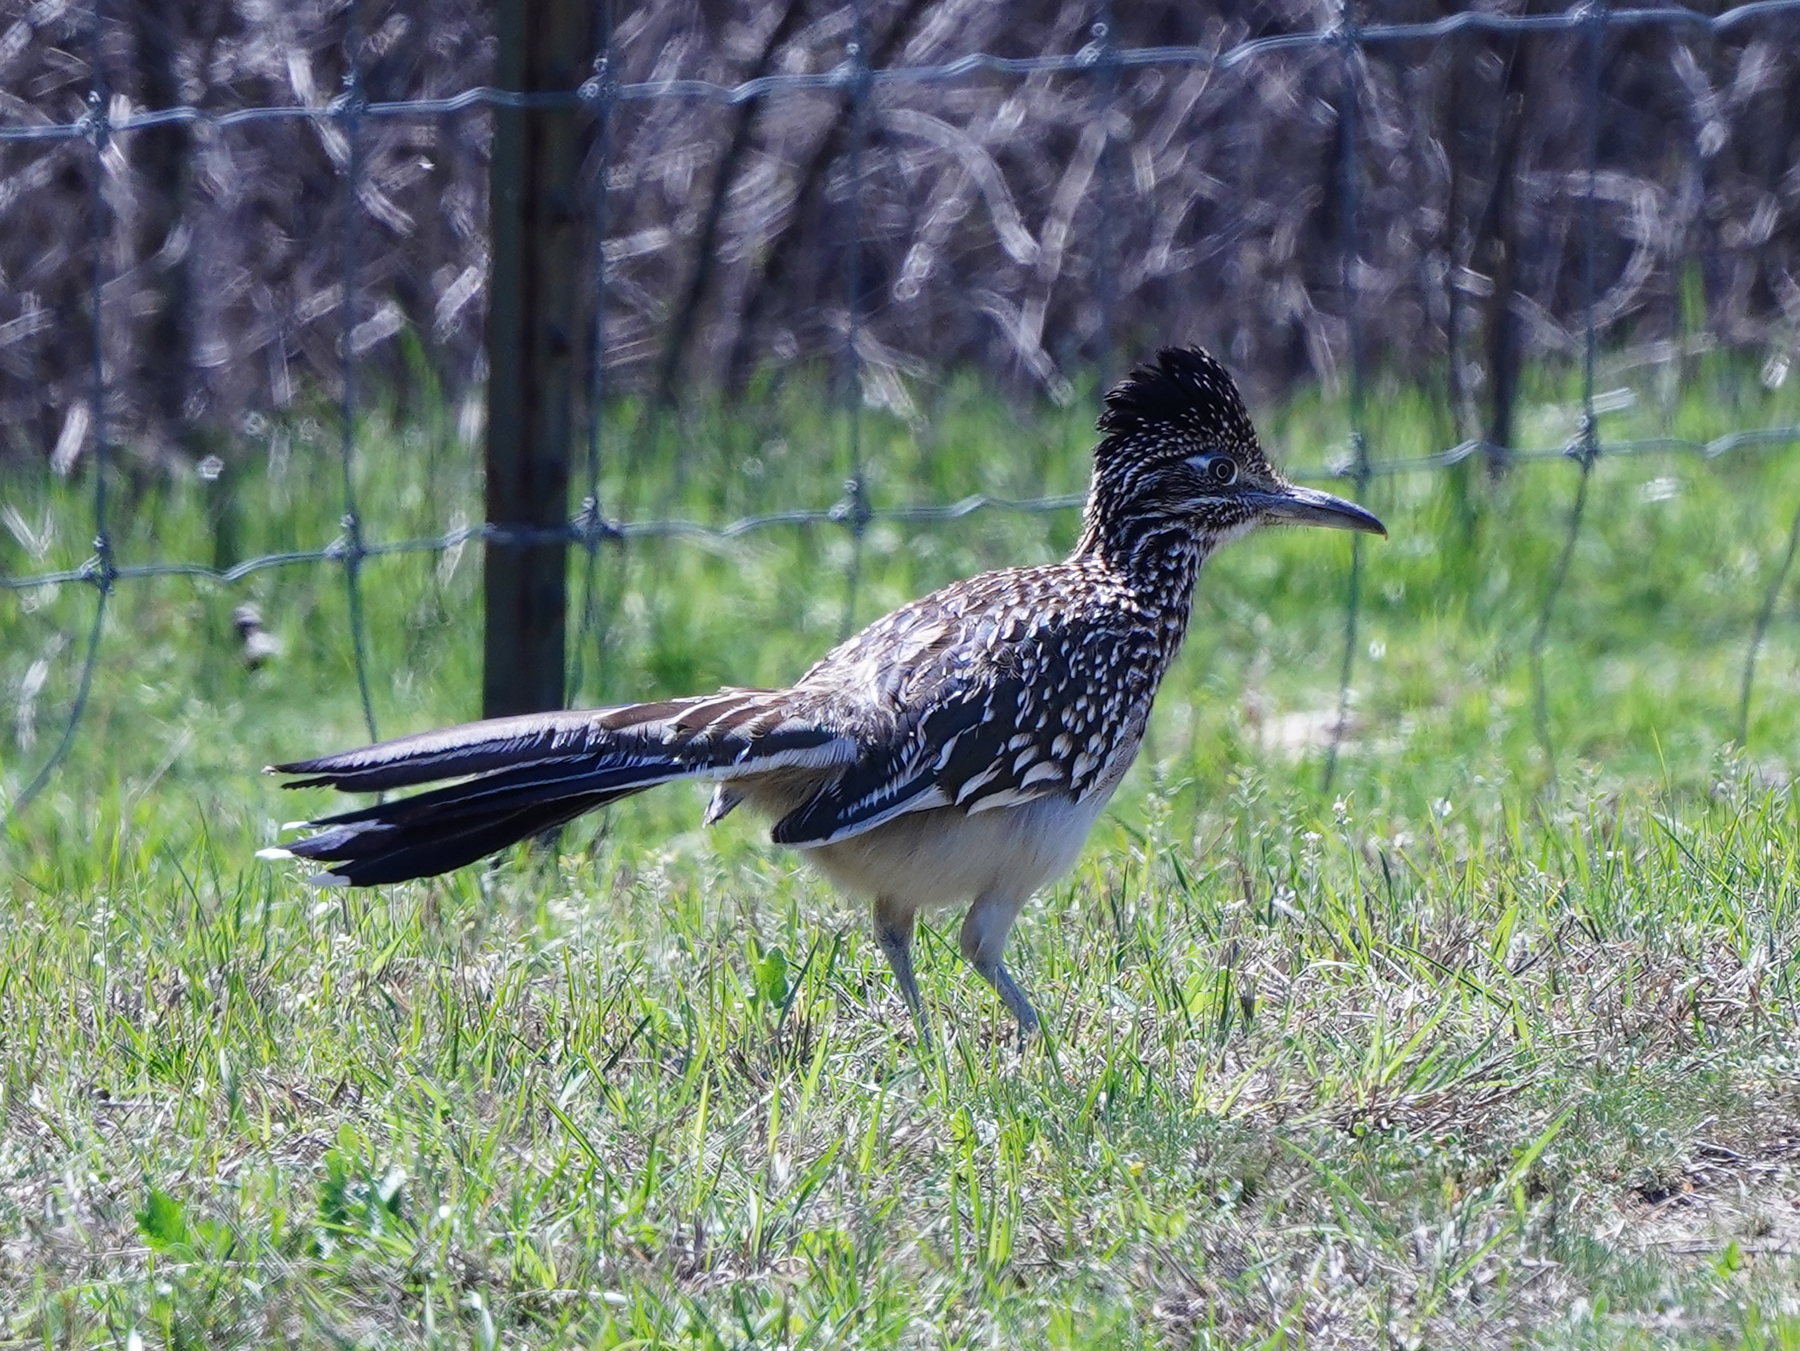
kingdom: Animalia
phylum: Chordata
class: Aves
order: Cuculiformes
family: Cuculidae
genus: Geococcyx
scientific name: Geococcyx californianus
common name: Greater roadrunner
